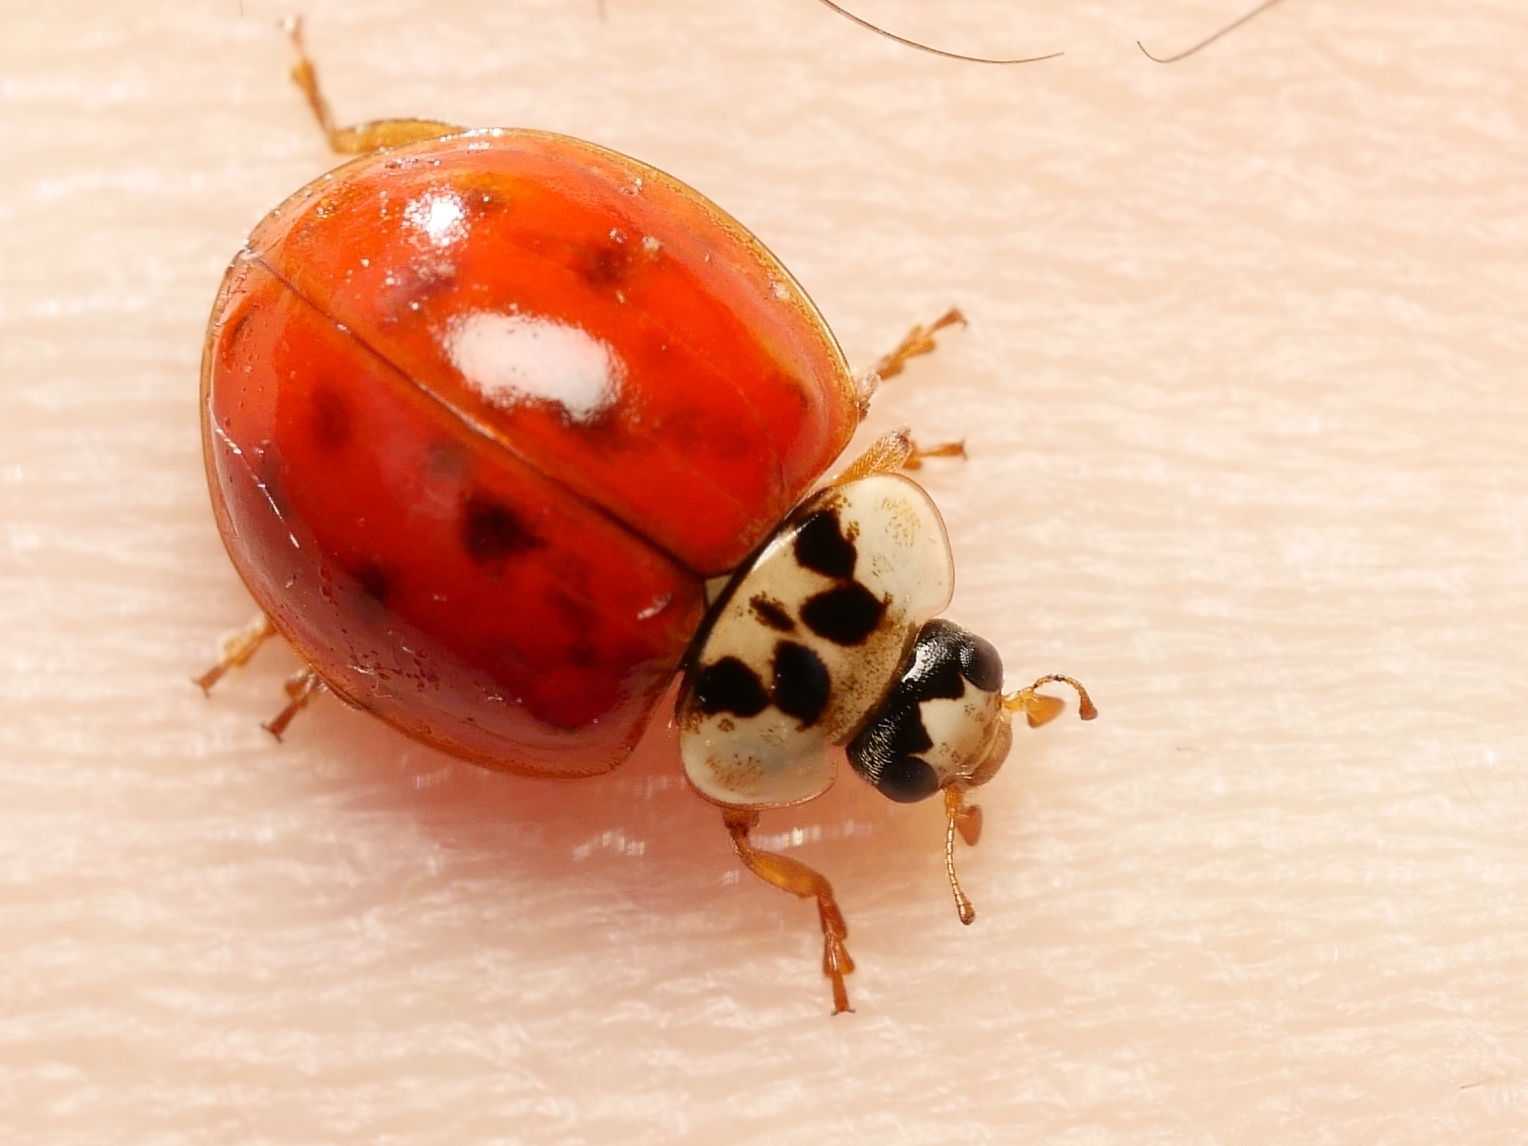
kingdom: Animalia
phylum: Arthropoda
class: Insecta
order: Coleoptera
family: Coccinellidae
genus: Harmonia
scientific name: Harmonia axyridis
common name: Harlequin ladybird
